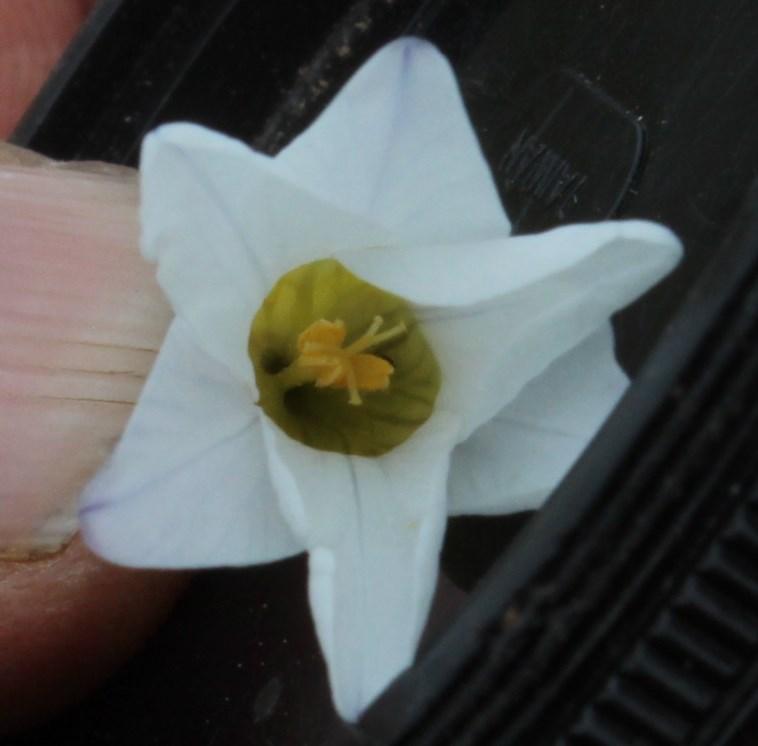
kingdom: Plantae
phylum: Tracheophyta
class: Liliopsida
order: Asparagales
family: Iridaceae
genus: Ixia
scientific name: Ixia thomasiae
